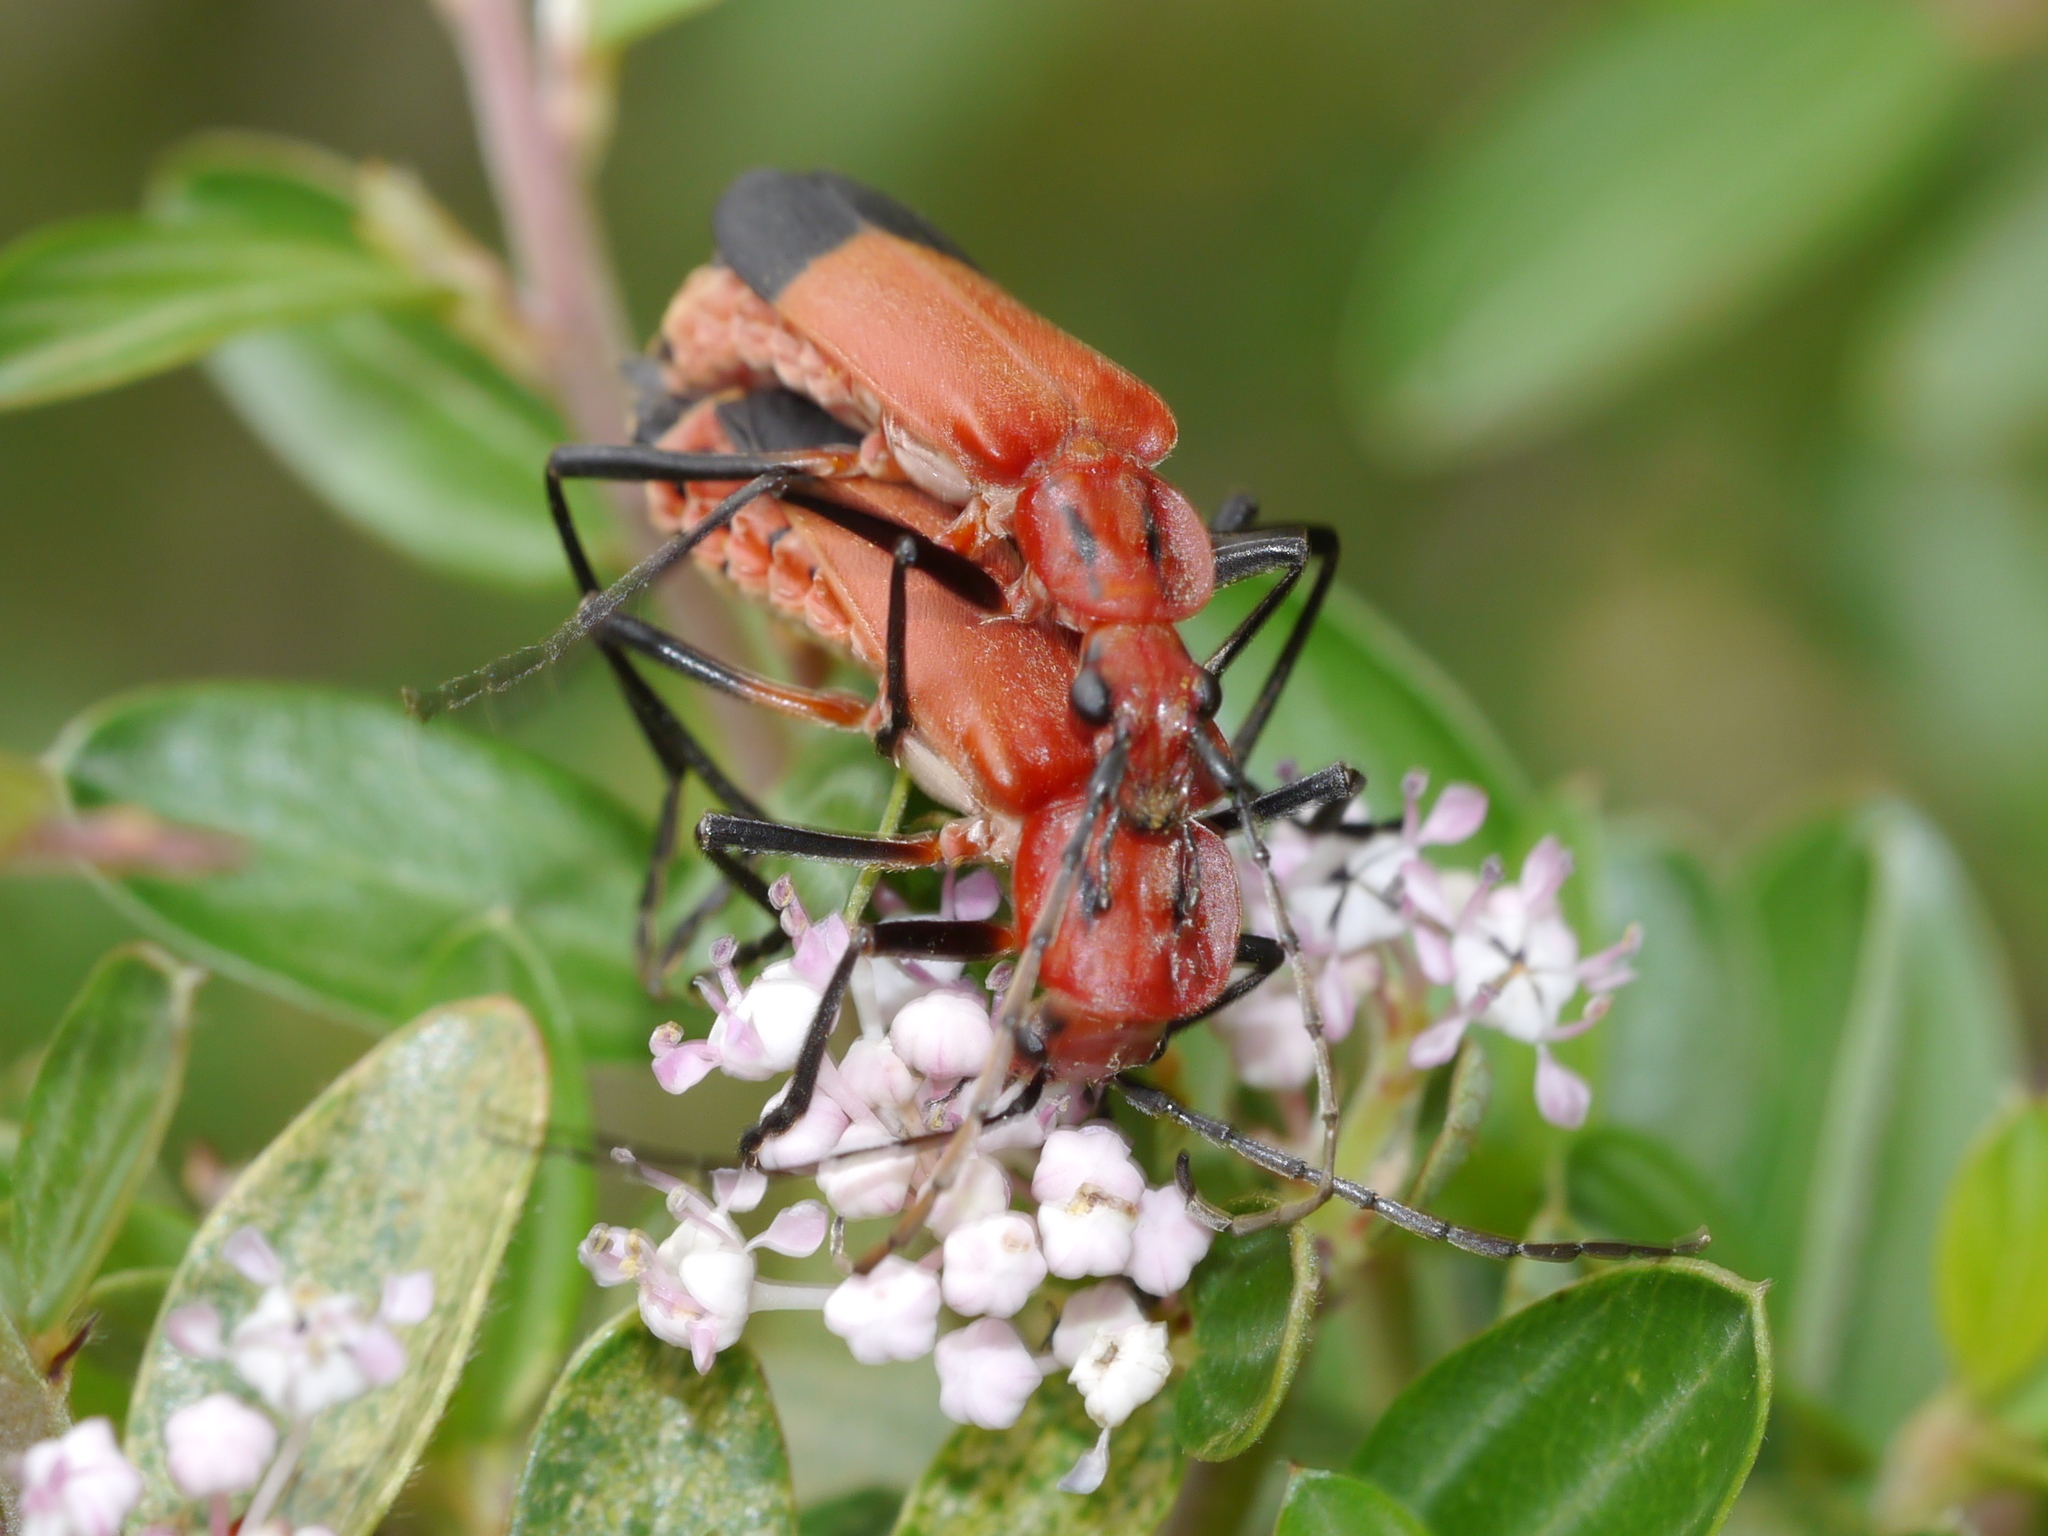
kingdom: Animalia
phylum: Arthropoda
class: Insecta
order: Coleoptera
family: Cantharidae
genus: Chauliognathus
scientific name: Chauliognathus lecontei
